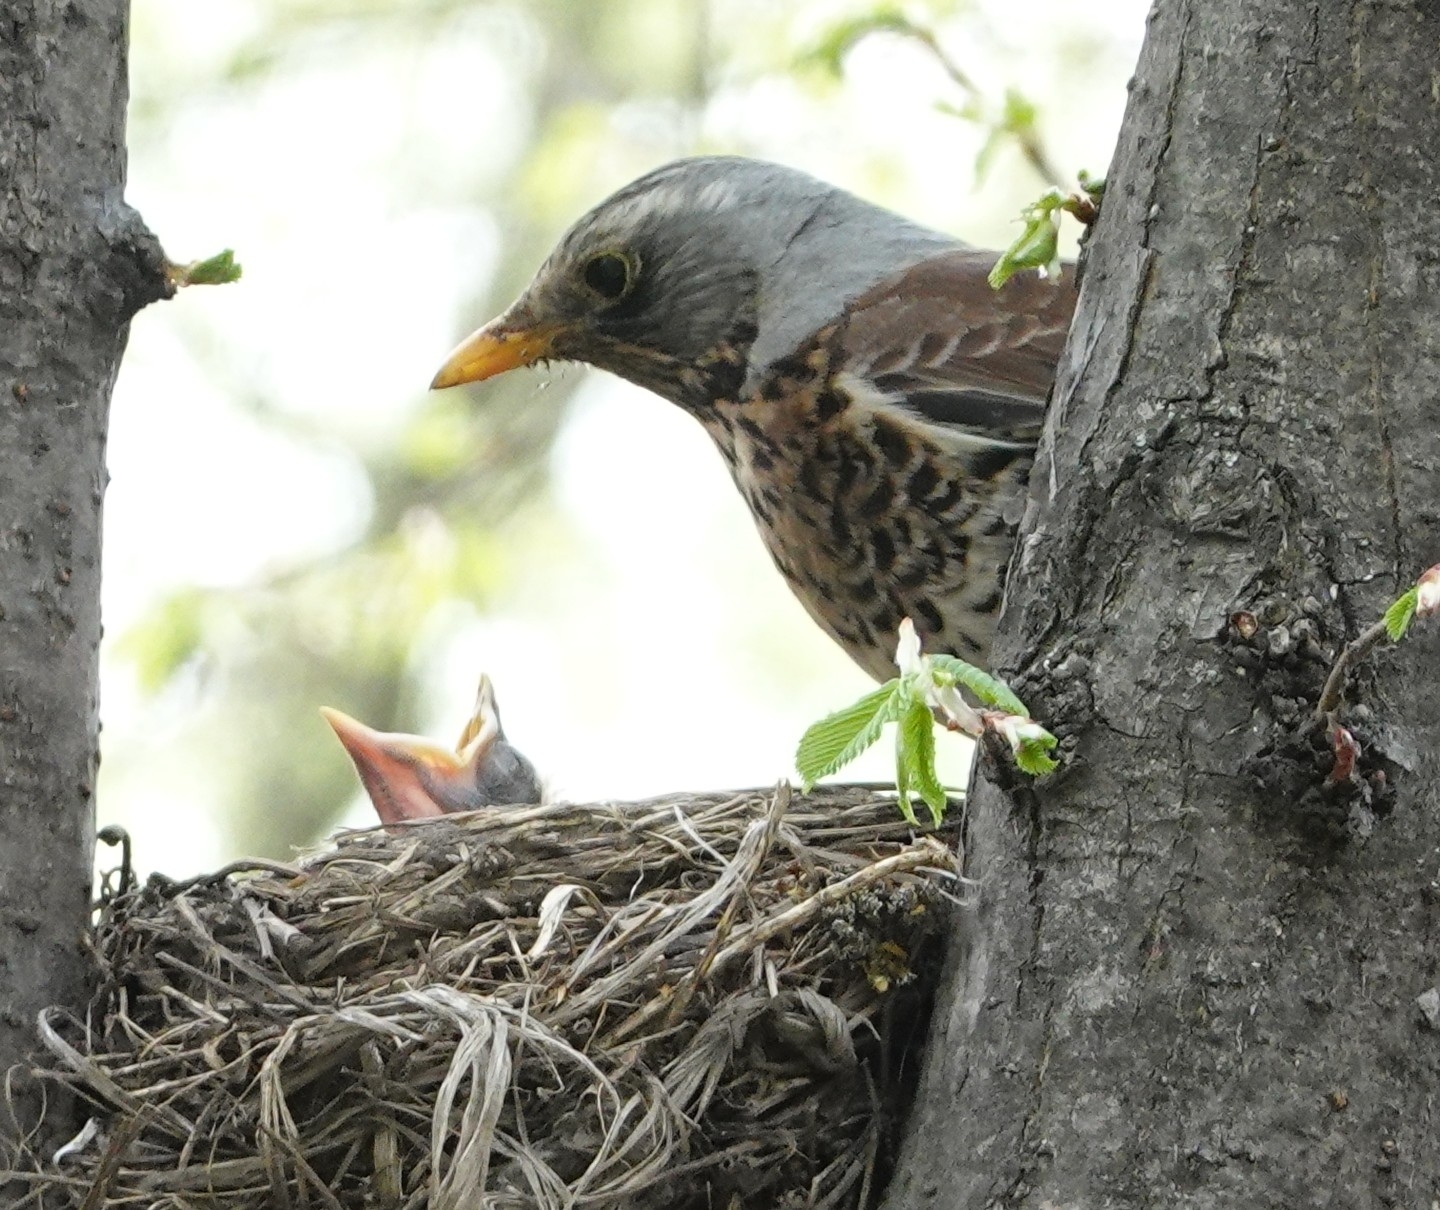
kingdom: Animalia
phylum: Chordata
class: Aves
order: Passeriformes
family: Turdidae
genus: Turdus
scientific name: Turdus pilaris
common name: Fieldfare
